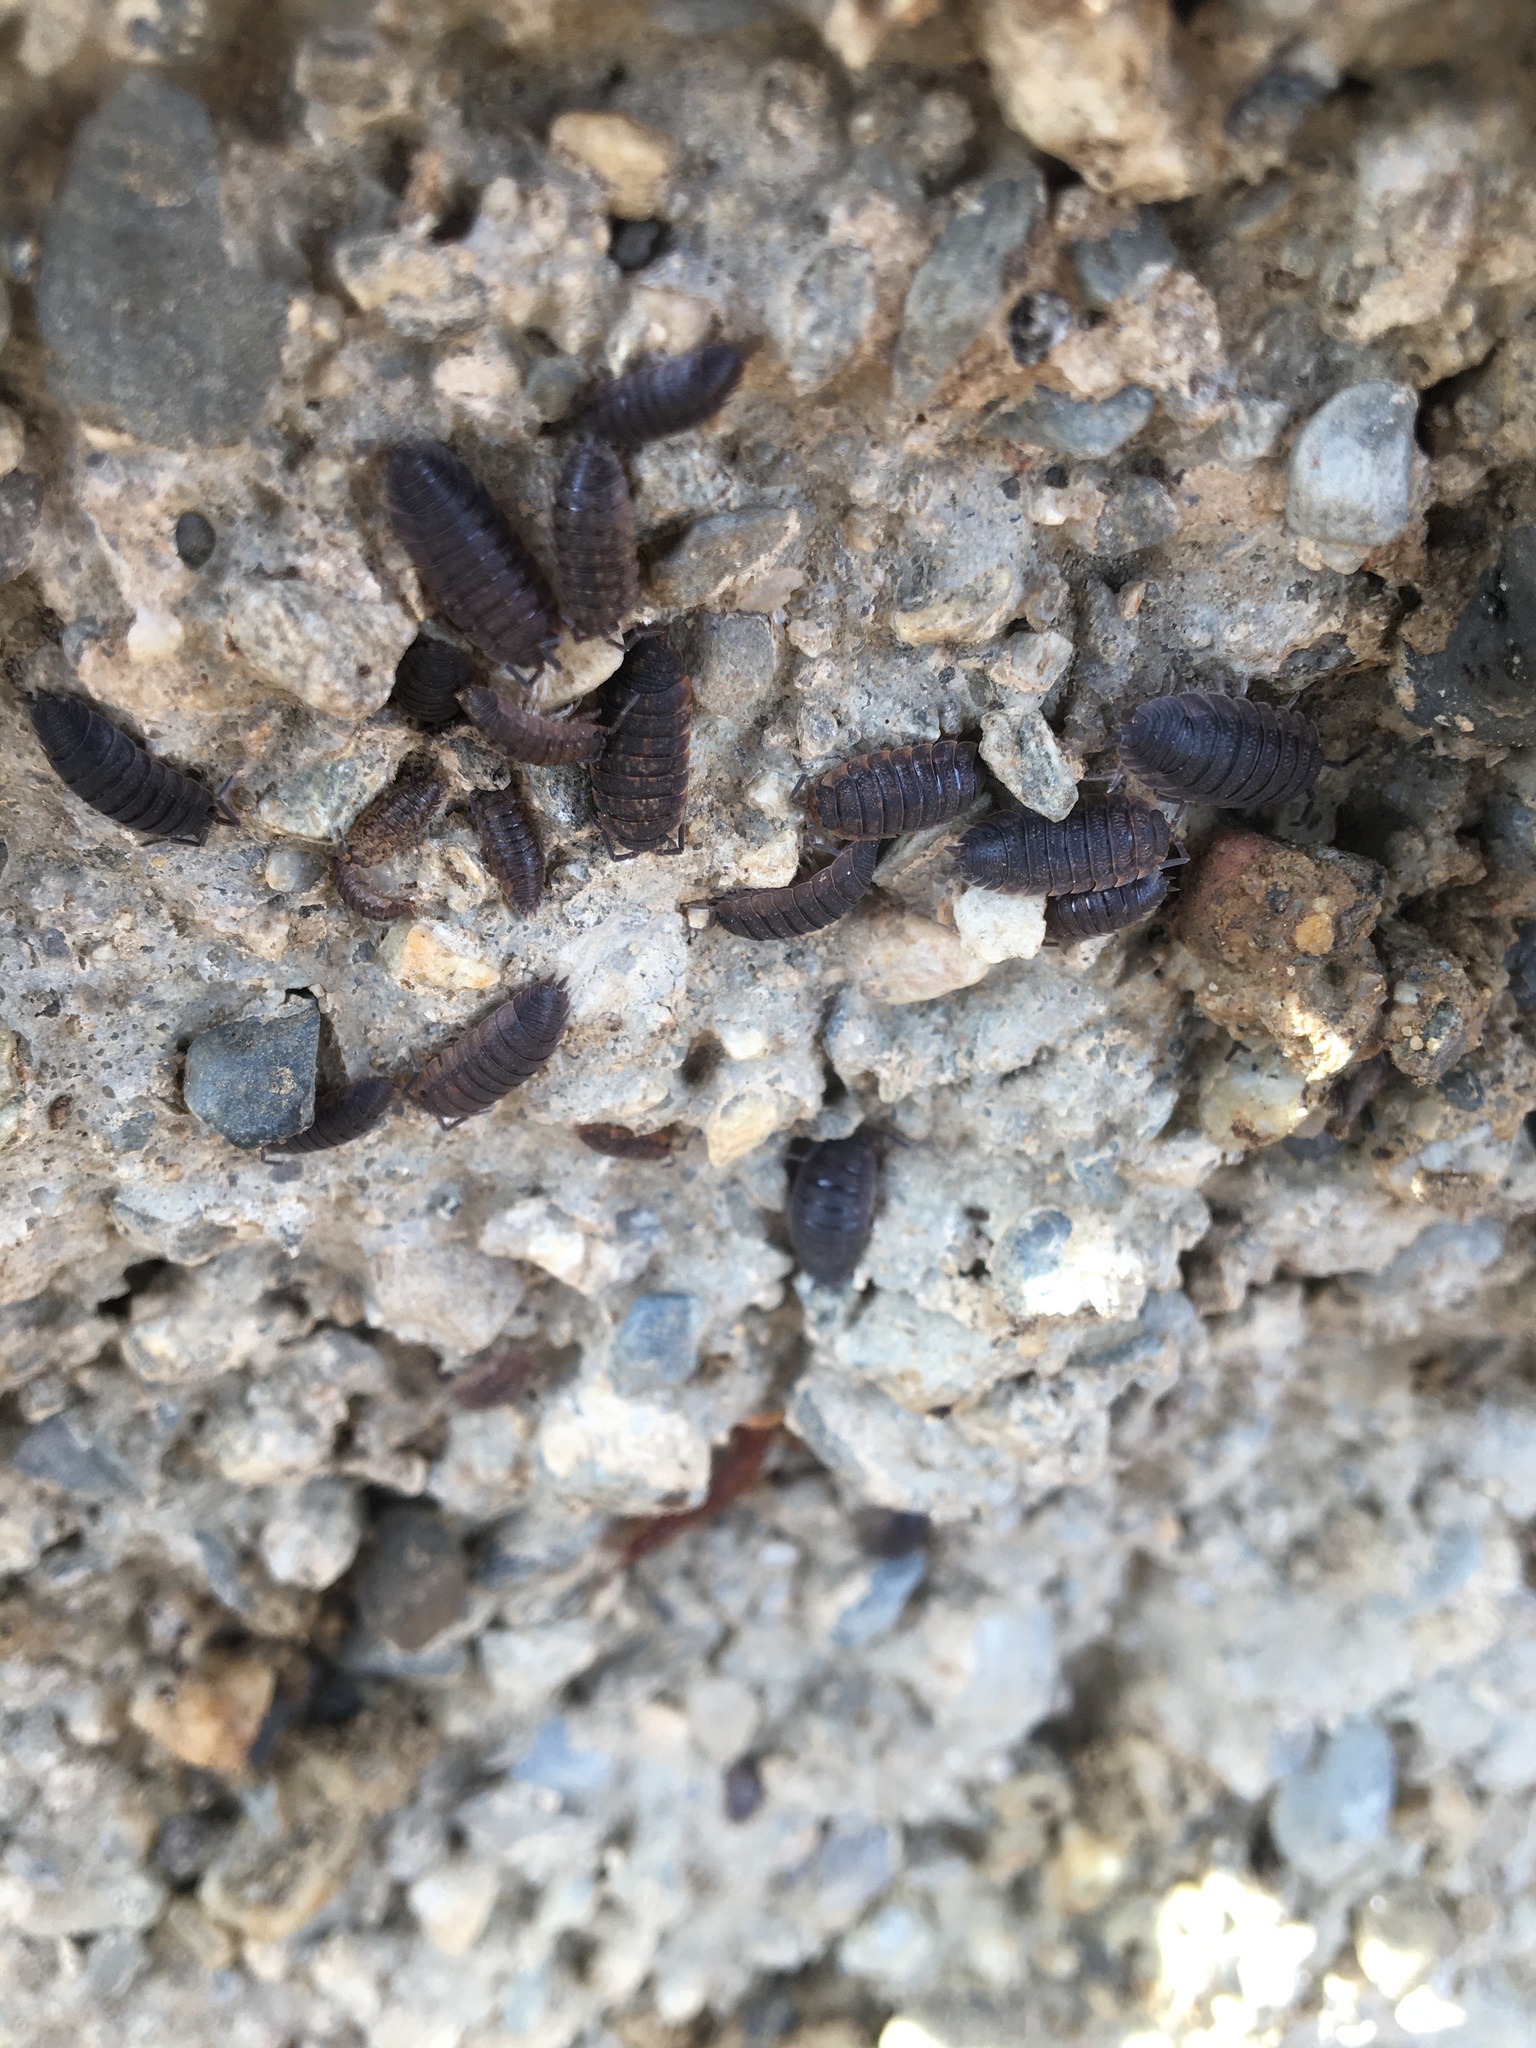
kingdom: Animalia
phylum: Arthropoda
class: Malacostraca
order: Isopoda
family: Porcellionidae
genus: Porcellio
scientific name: Porcellio scaber
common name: Common rough woodlouse
